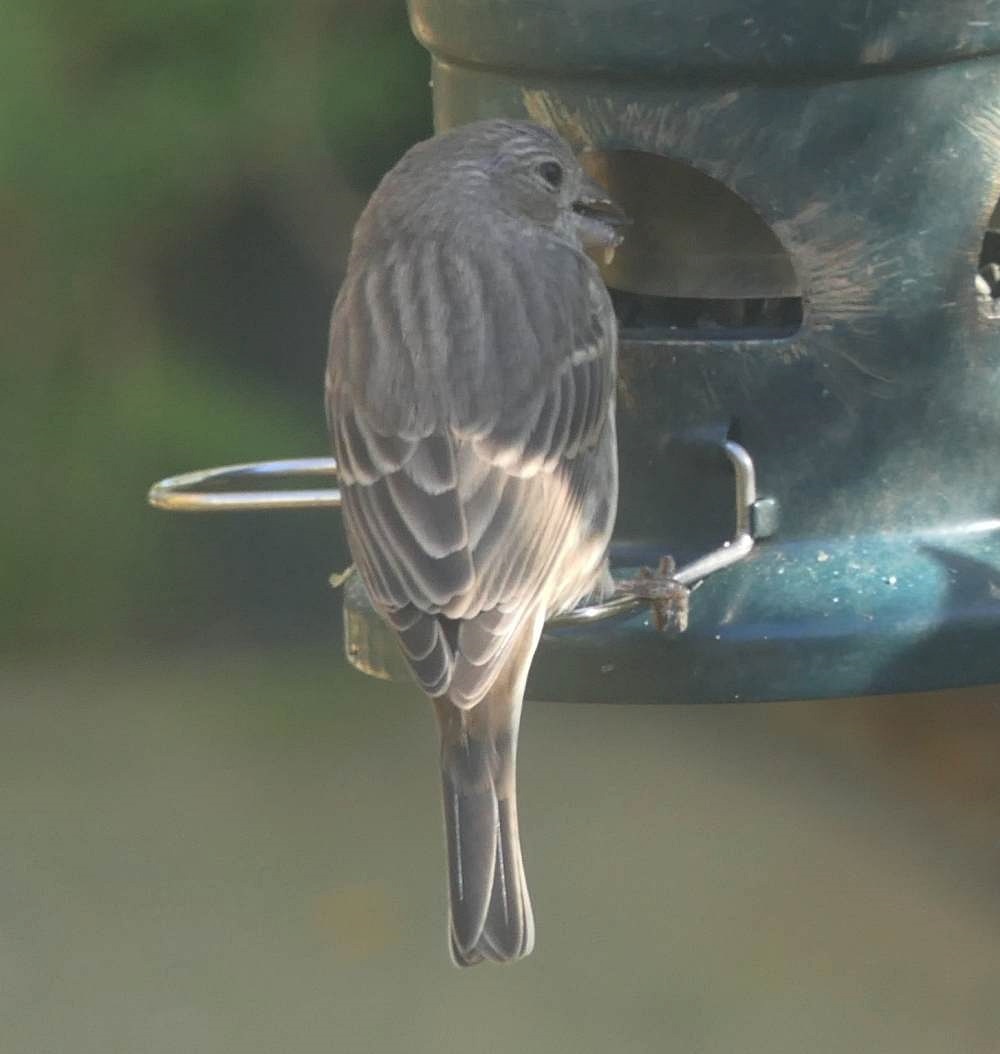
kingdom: Animalia
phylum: Chordata
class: Aves
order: Passeriformes
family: Fringillidae
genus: Haemorhous
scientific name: Haemorhous mexicanus
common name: House finch
